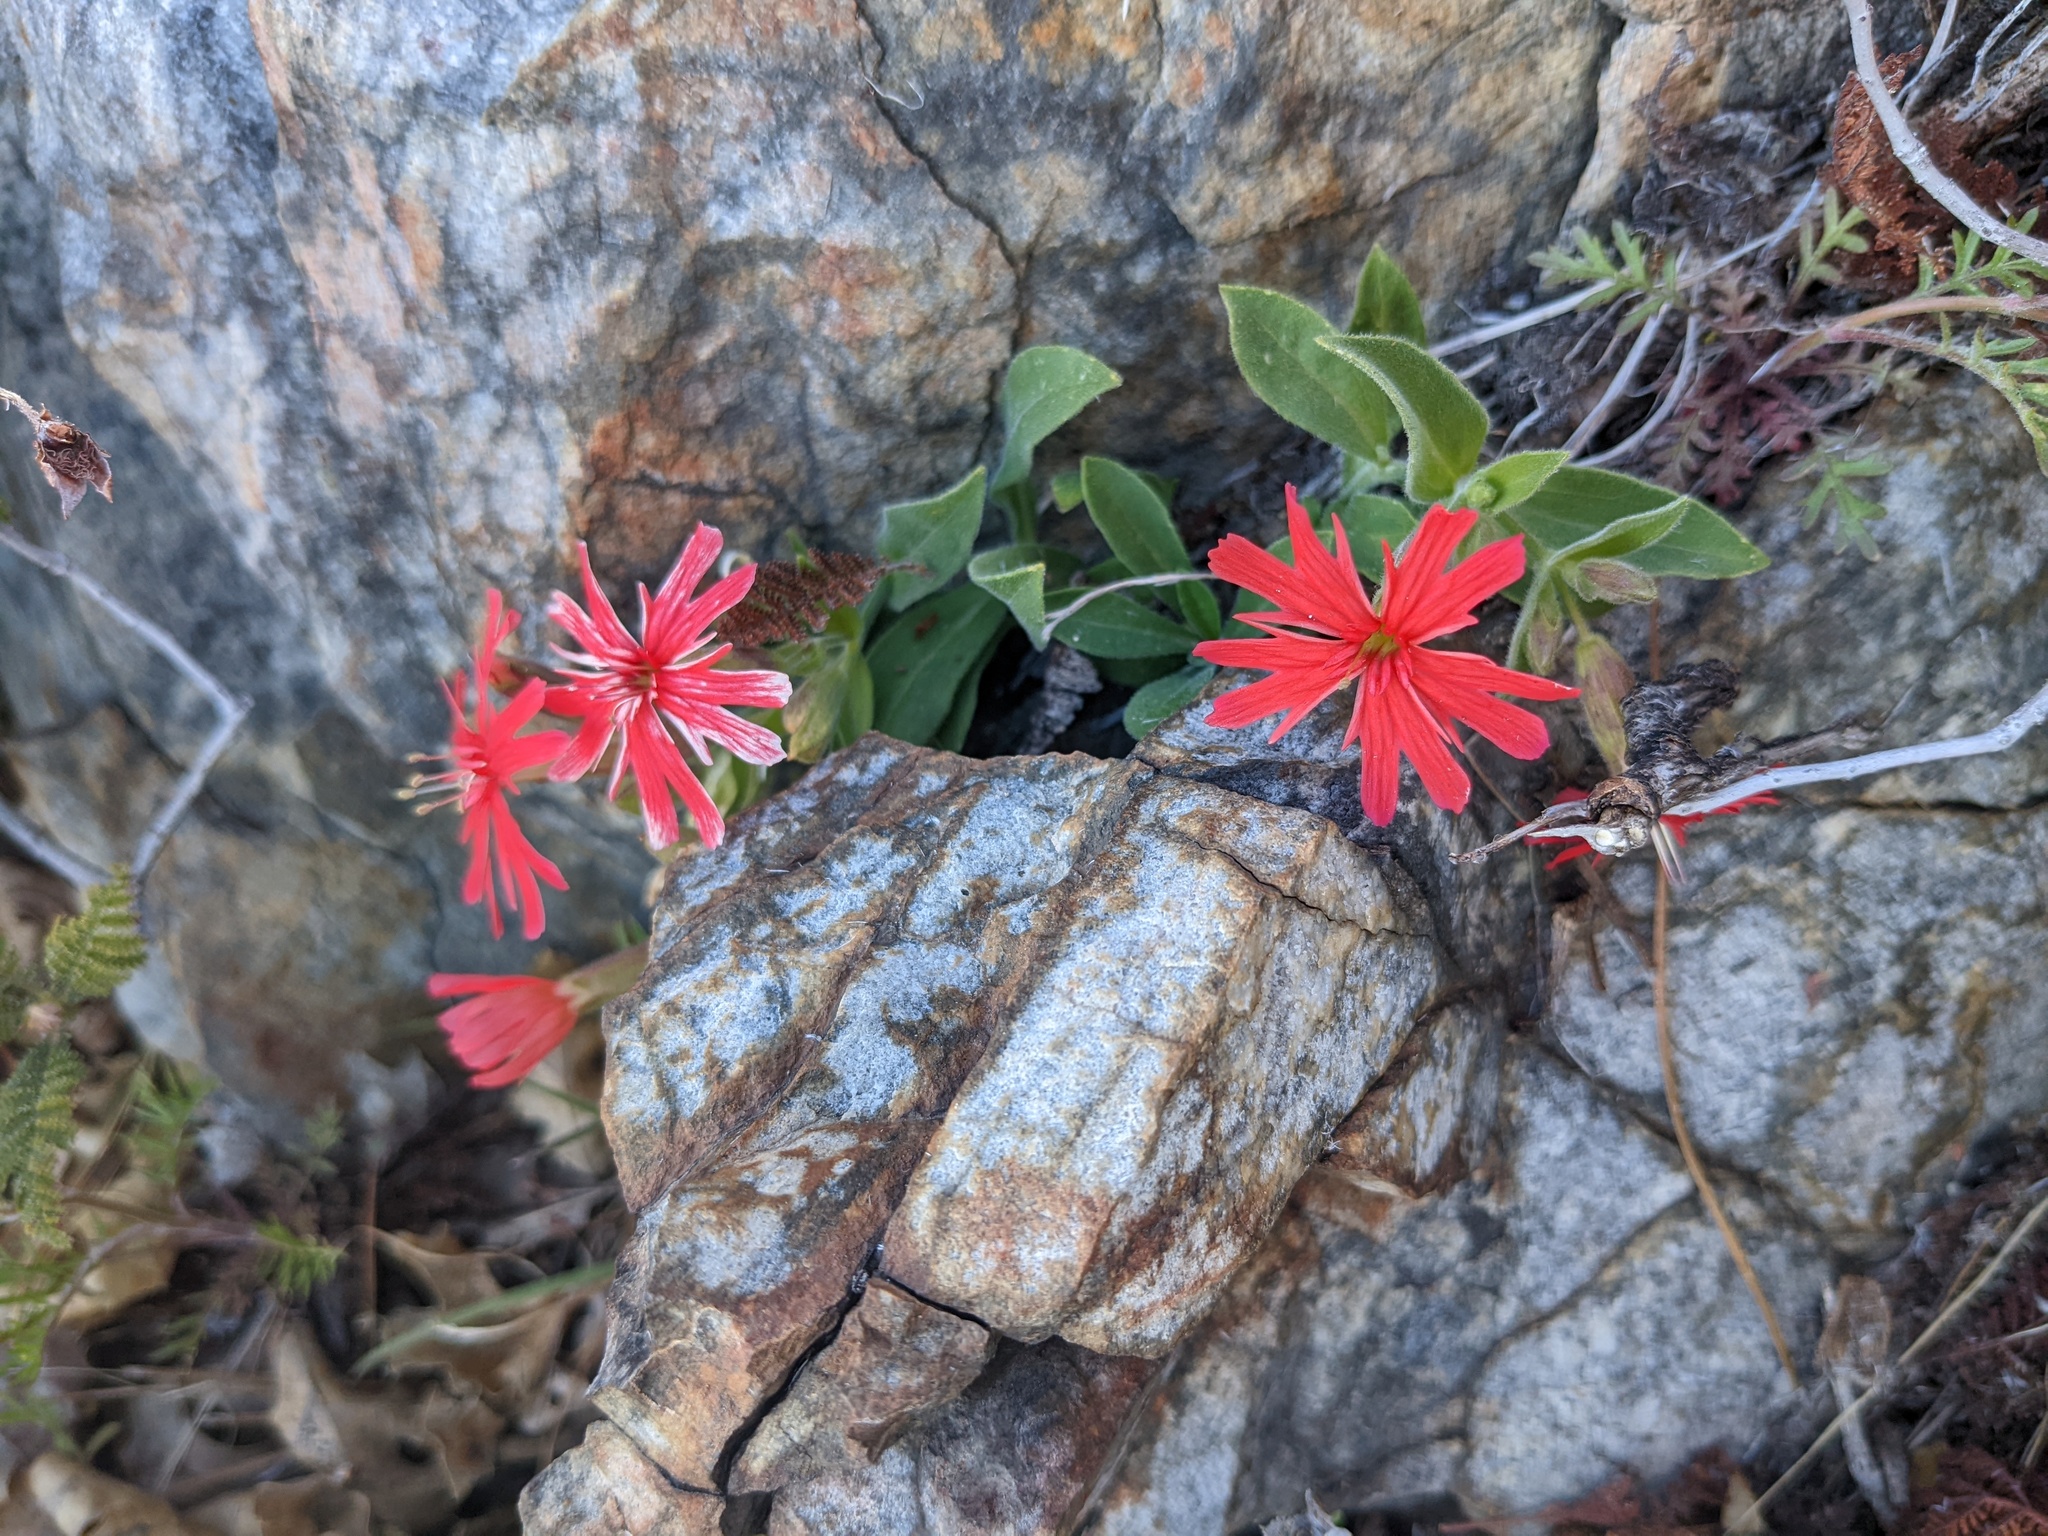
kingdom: Plantae
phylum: Tracheophyta
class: Magnoliopsida
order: Caryophyllales
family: Caryophyllaceae
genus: Silene
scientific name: Silene laciniata
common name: Indian-pink
